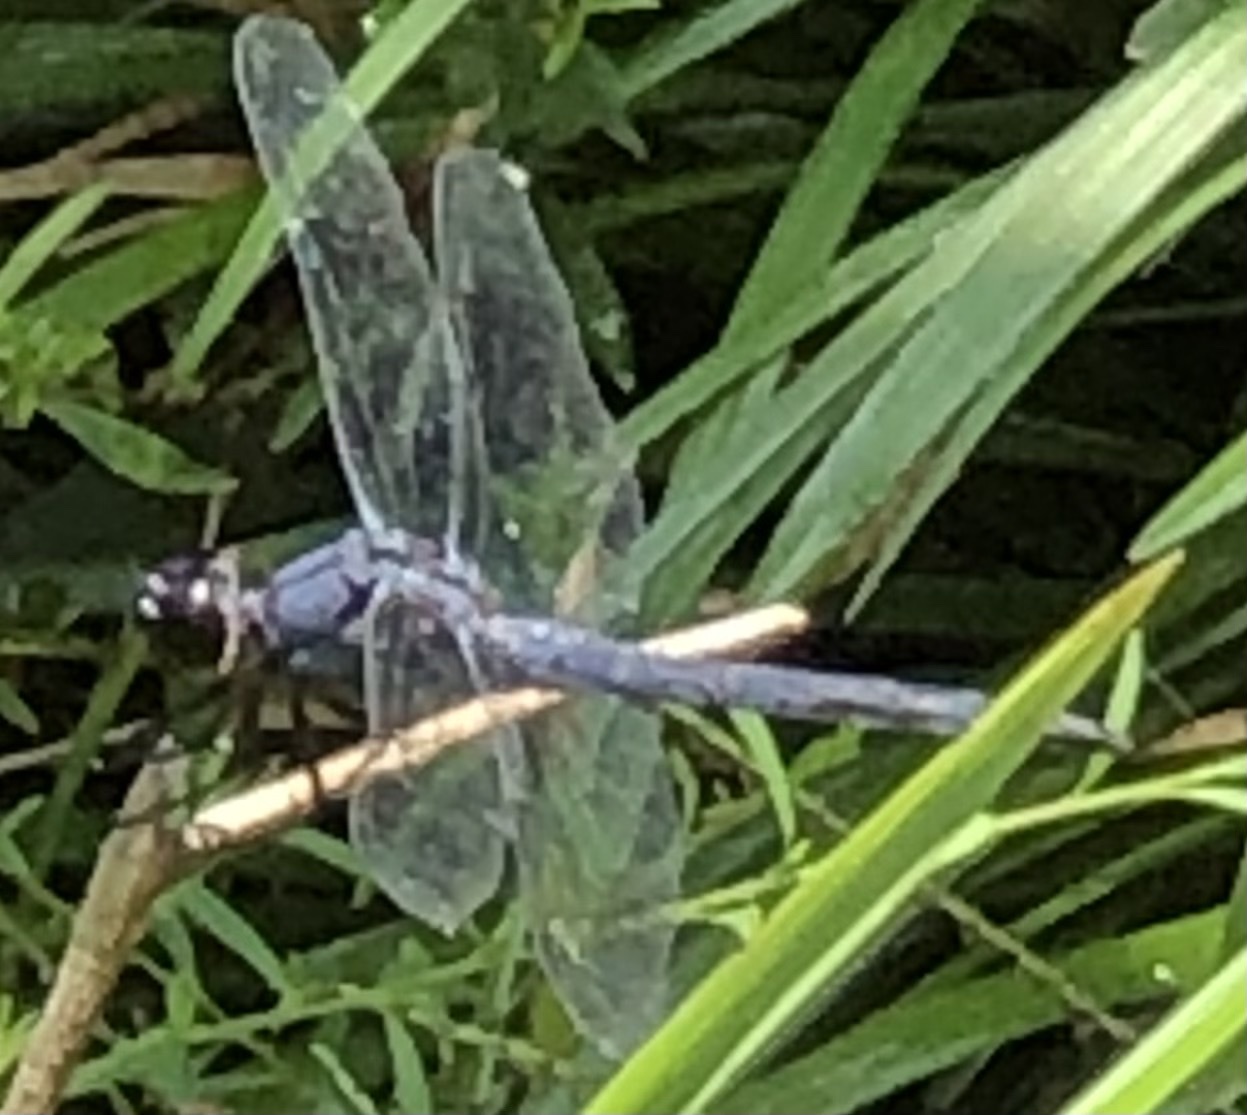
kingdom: Animalia
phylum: Arthropoda
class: Insecta
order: Odonata
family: Libellulidae
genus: Libellula
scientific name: Libellula incesta
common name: Slaty skimmer
